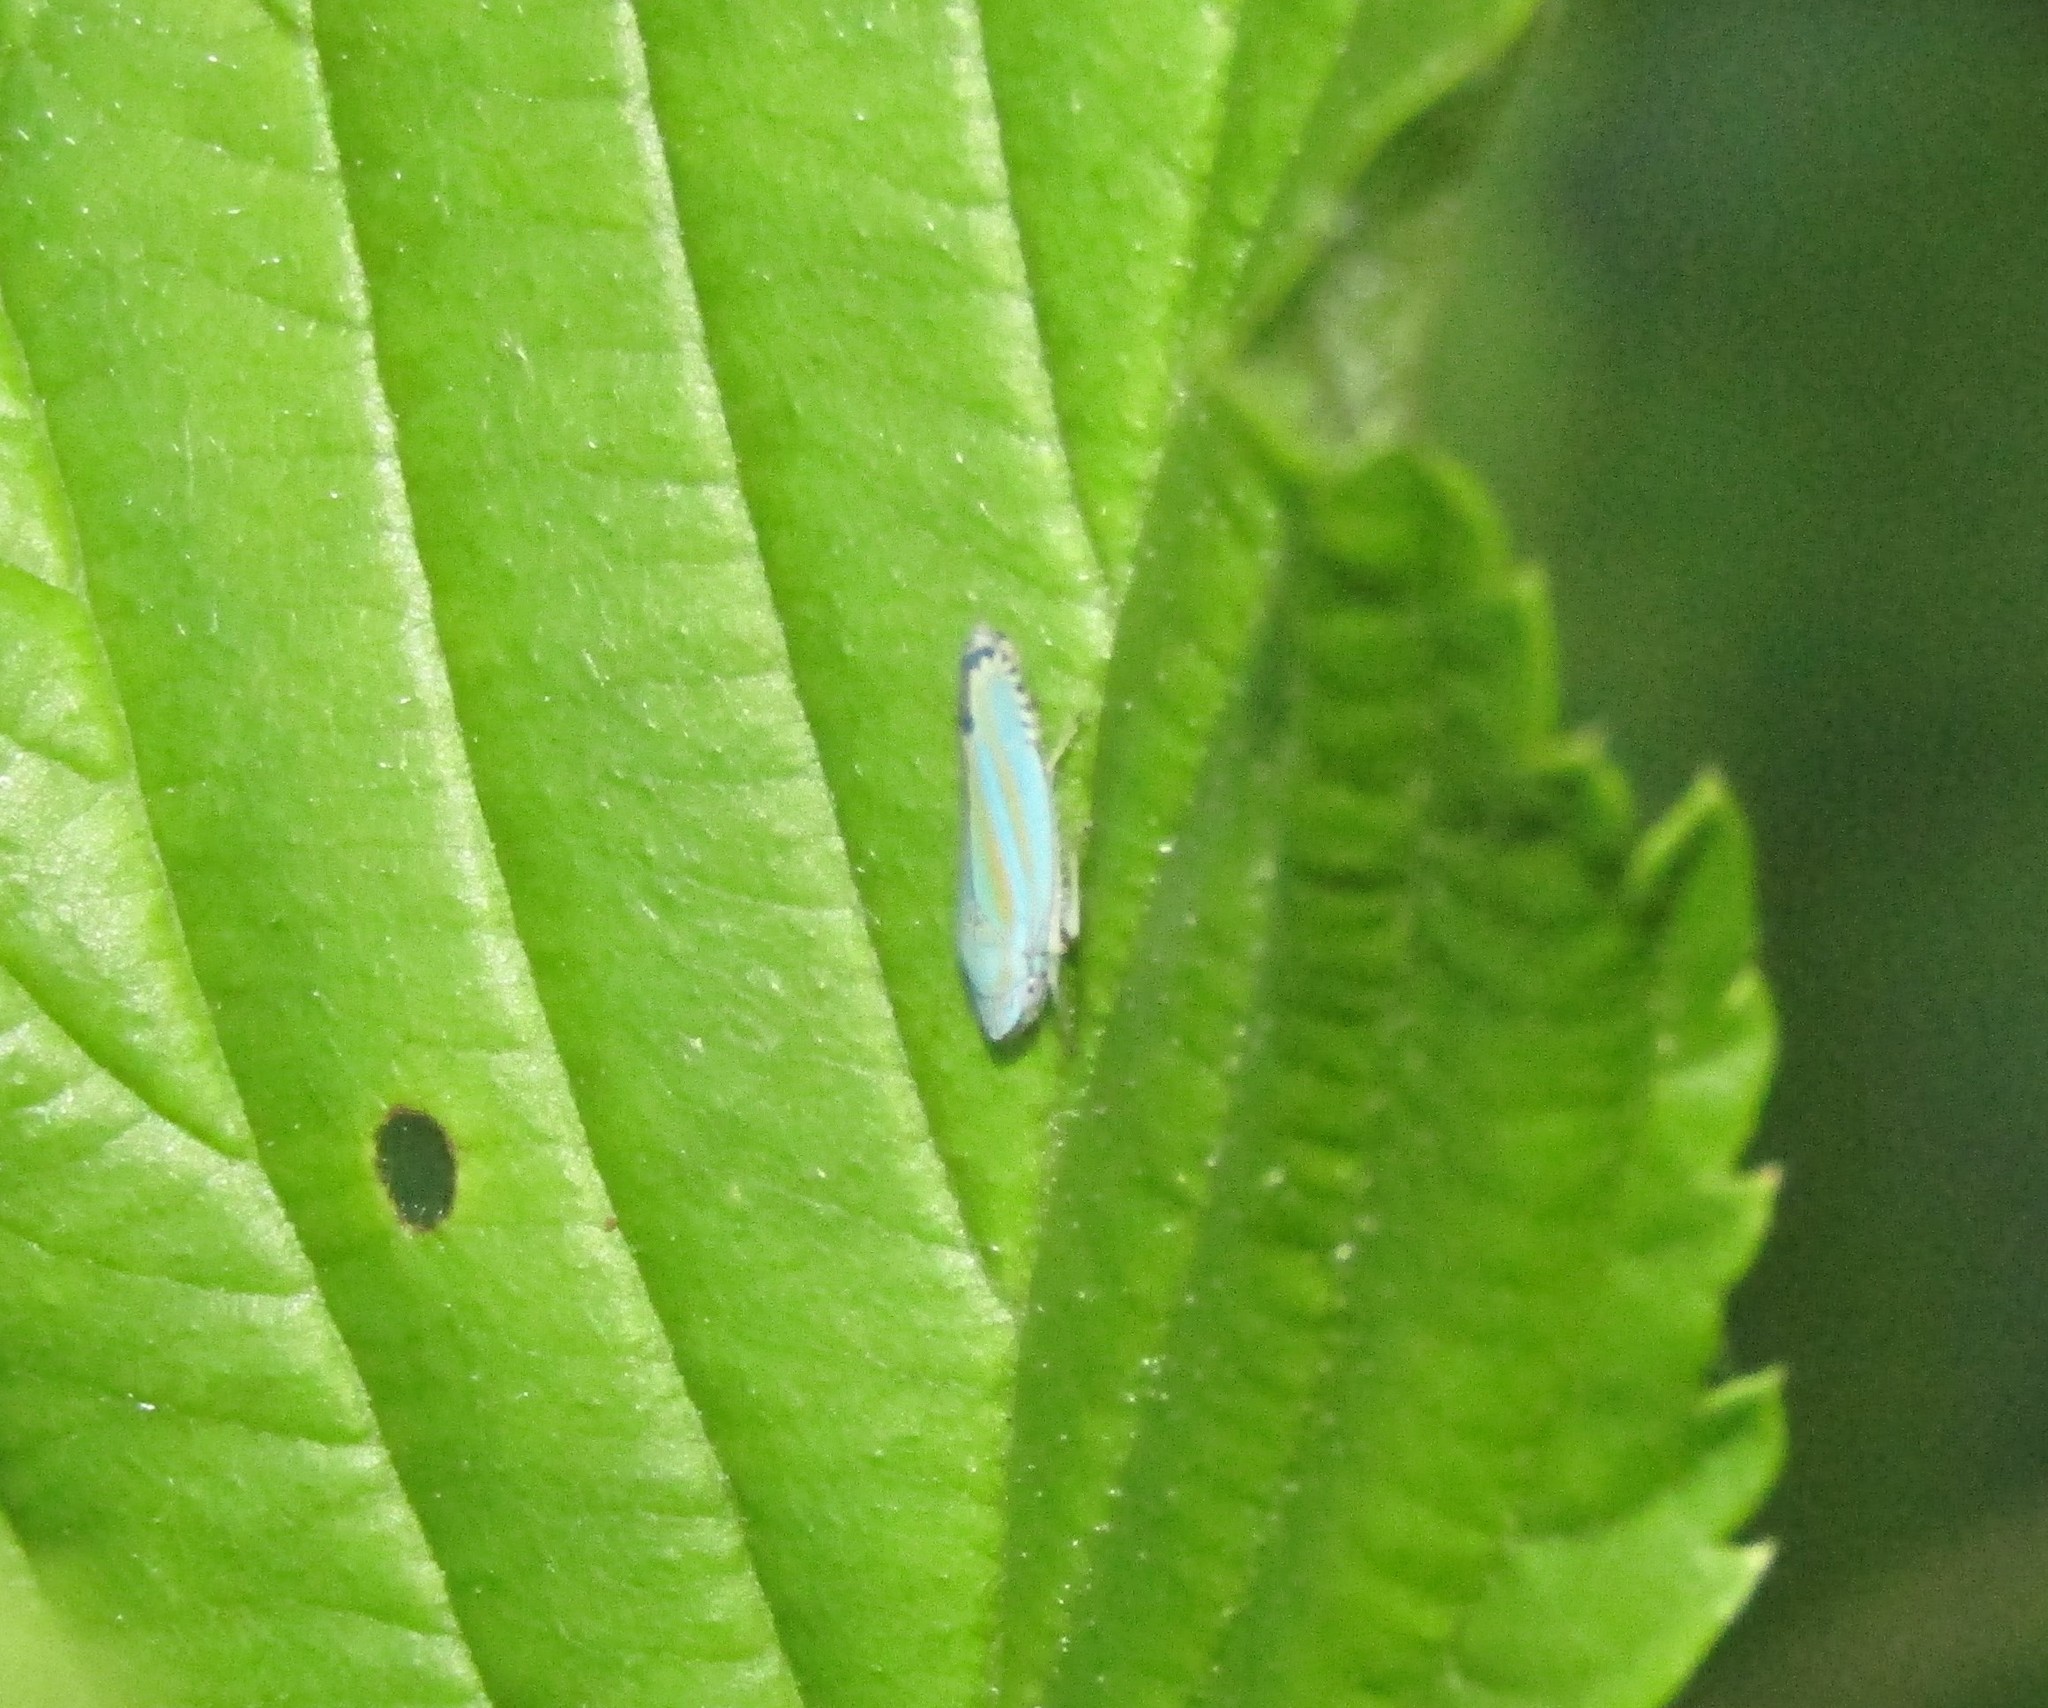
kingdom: Animalia
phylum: Arthropoda
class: Insecta
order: Hemiptera
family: Cicadellidae
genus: Graphocephala
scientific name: Graphocephala versuta
